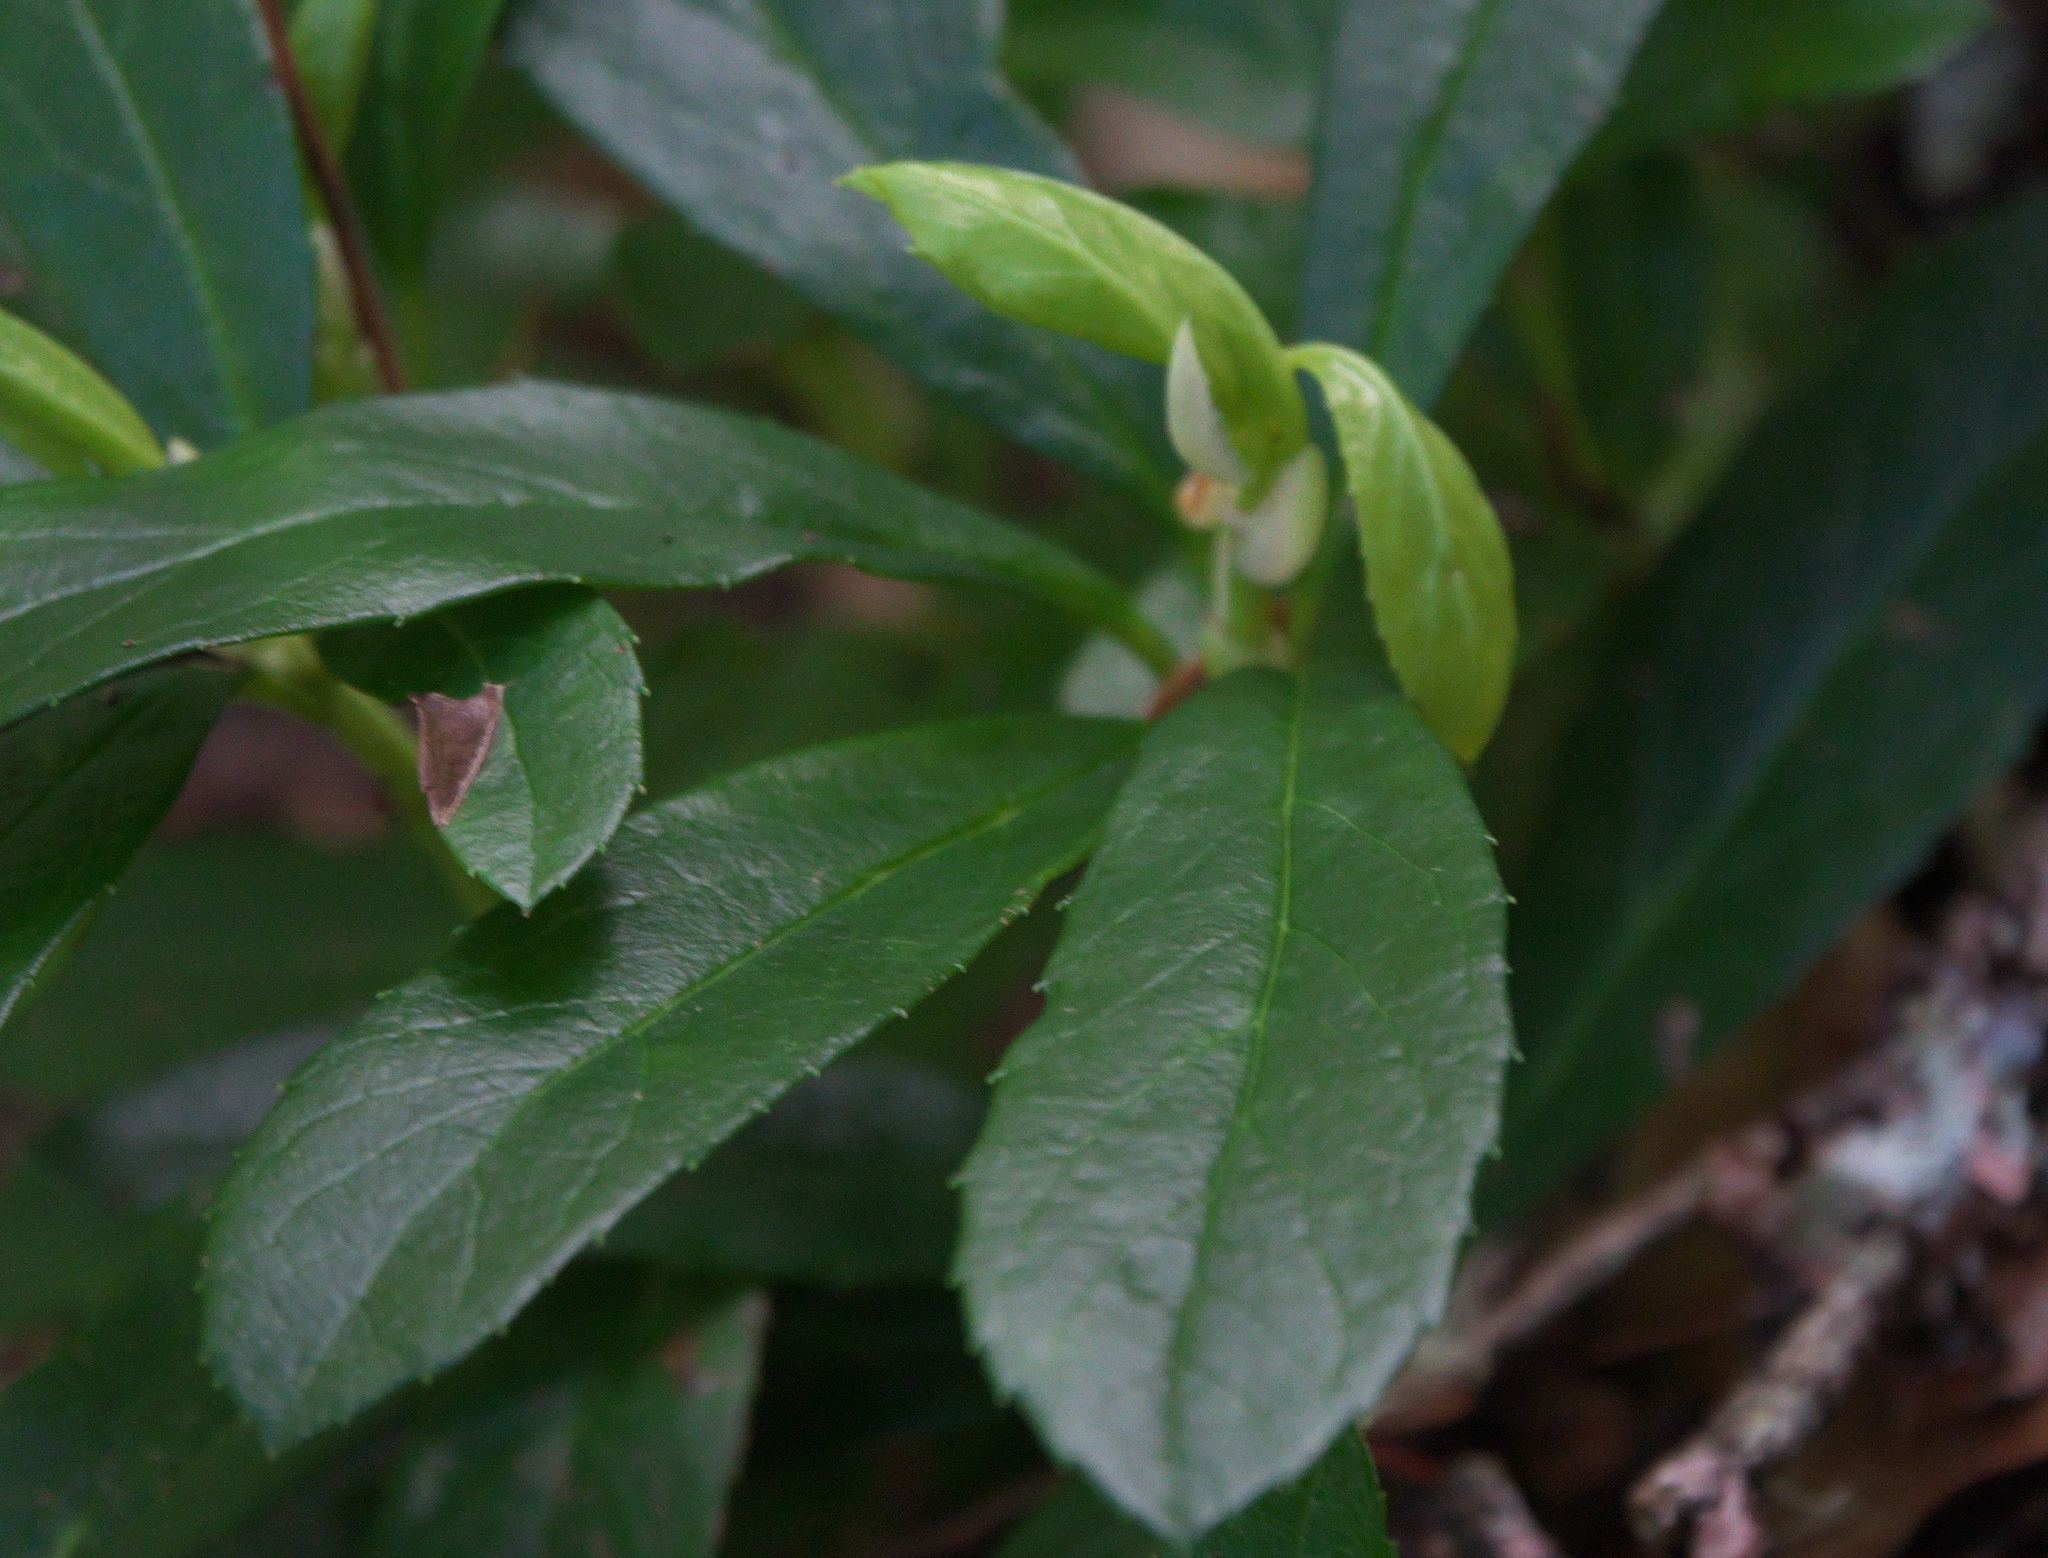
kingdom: Plantae
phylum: Tracheophyta
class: Magnoliopsida
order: Ericales
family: Ericaceae
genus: Chimaphila
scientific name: Chimaphila umbellata
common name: Pipsissewa
